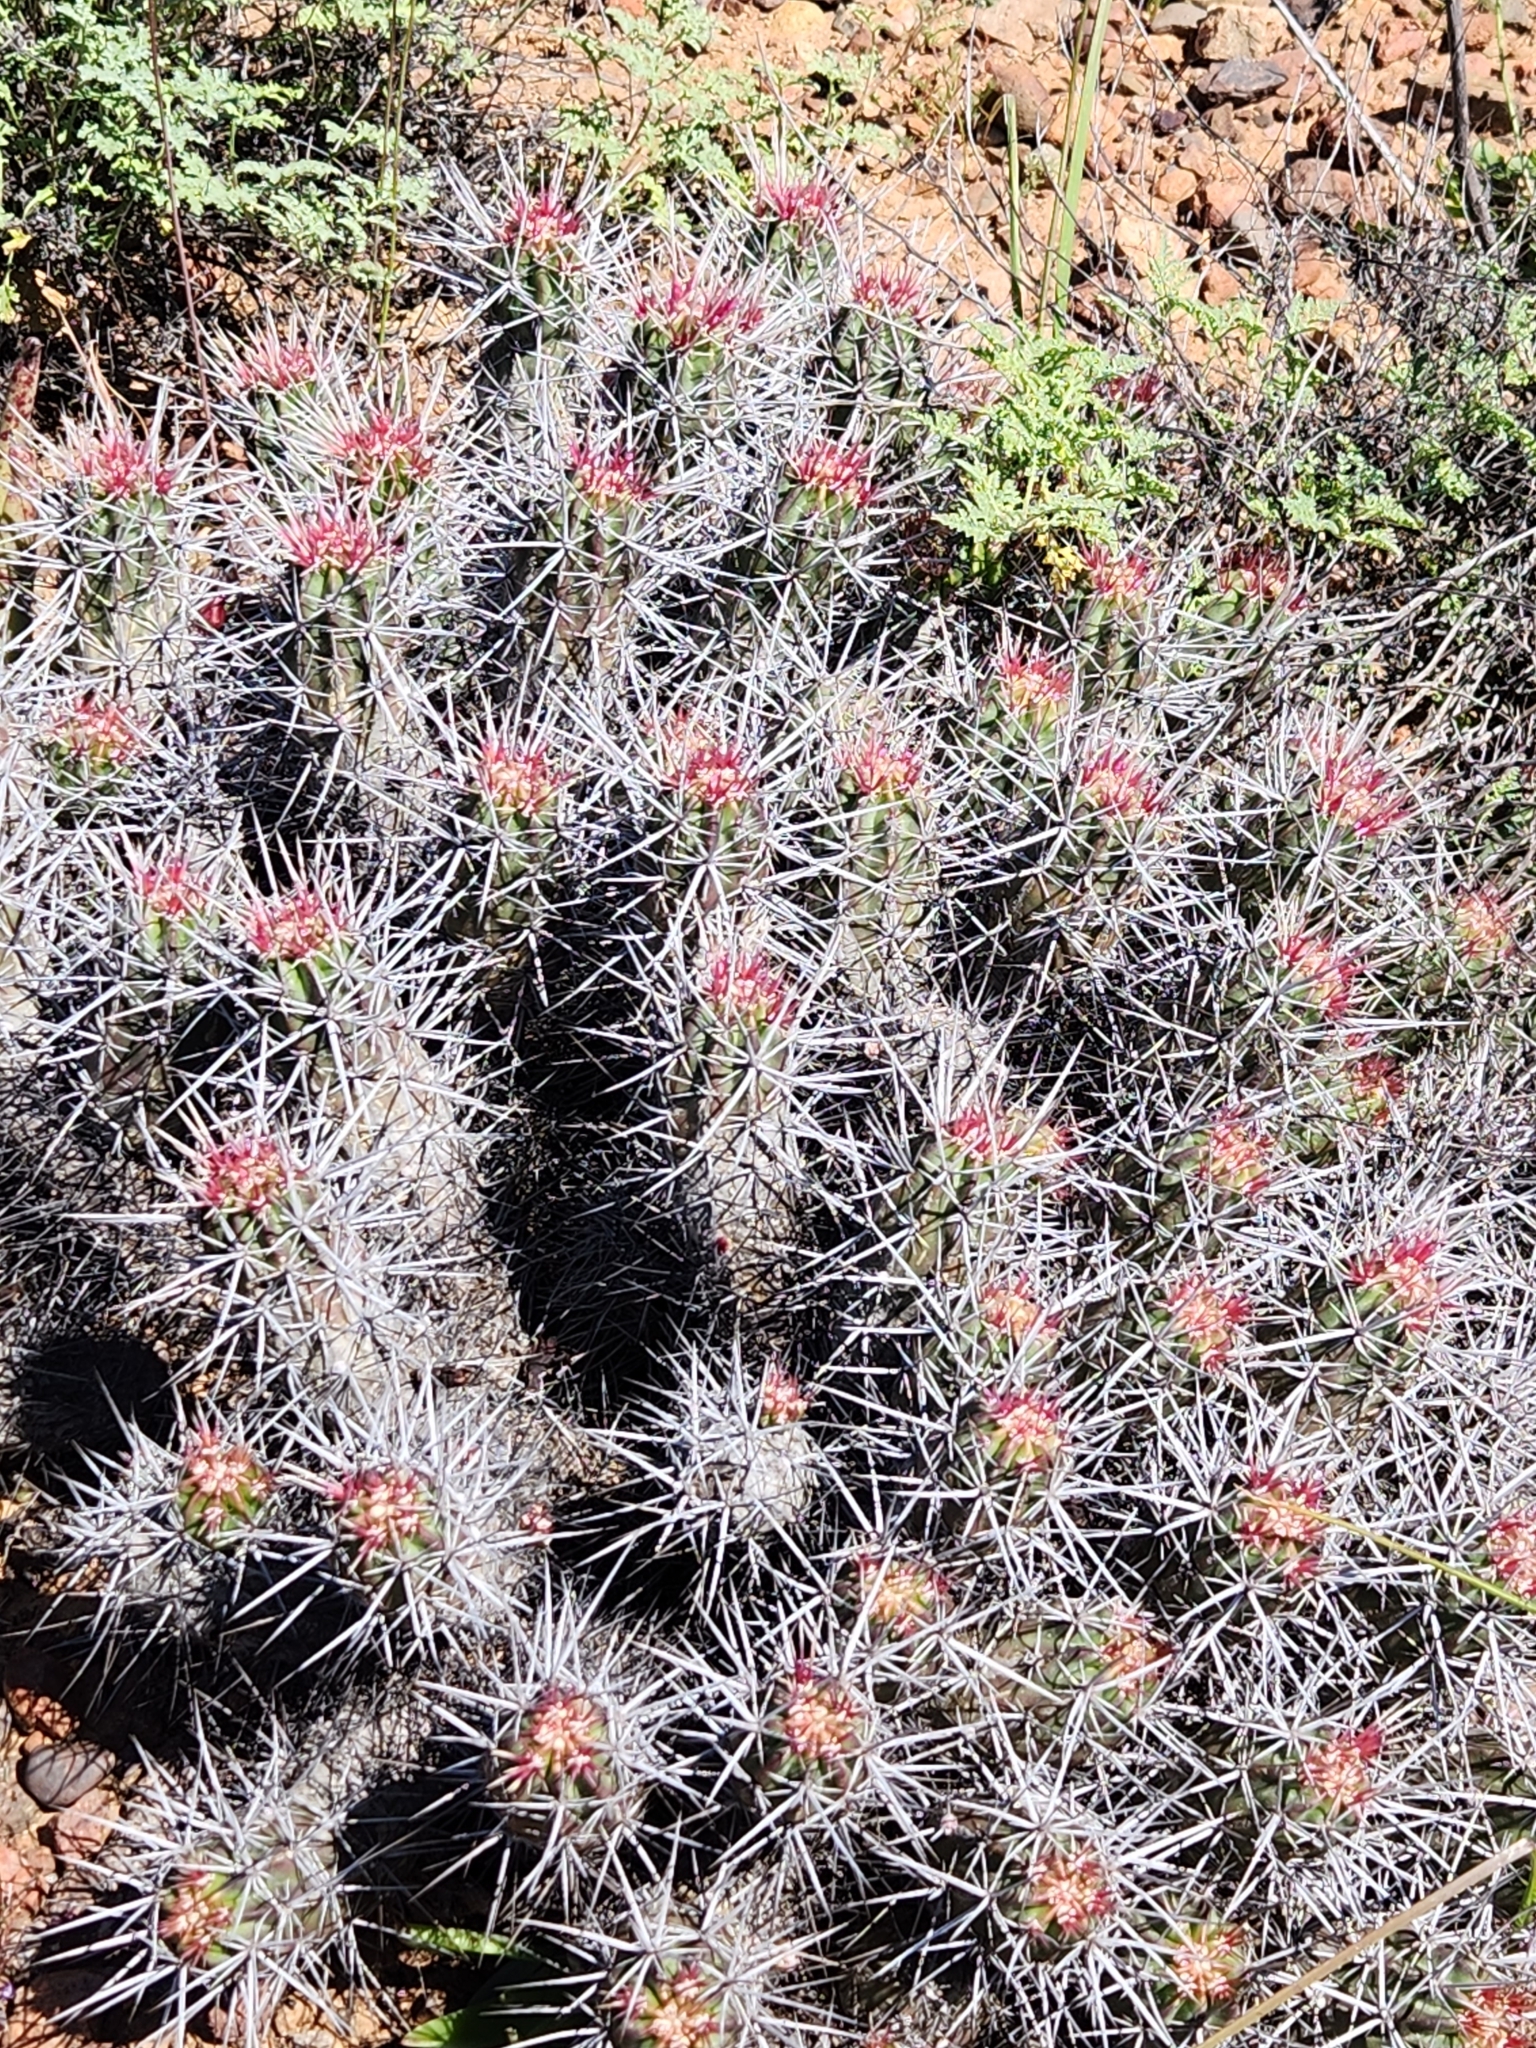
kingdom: Plantae
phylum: Tracheophyta
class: Magnoliopsida
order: Caryophyllales
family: Cactaceae
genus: Echinocereus
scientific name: Echinocereus maritimus
